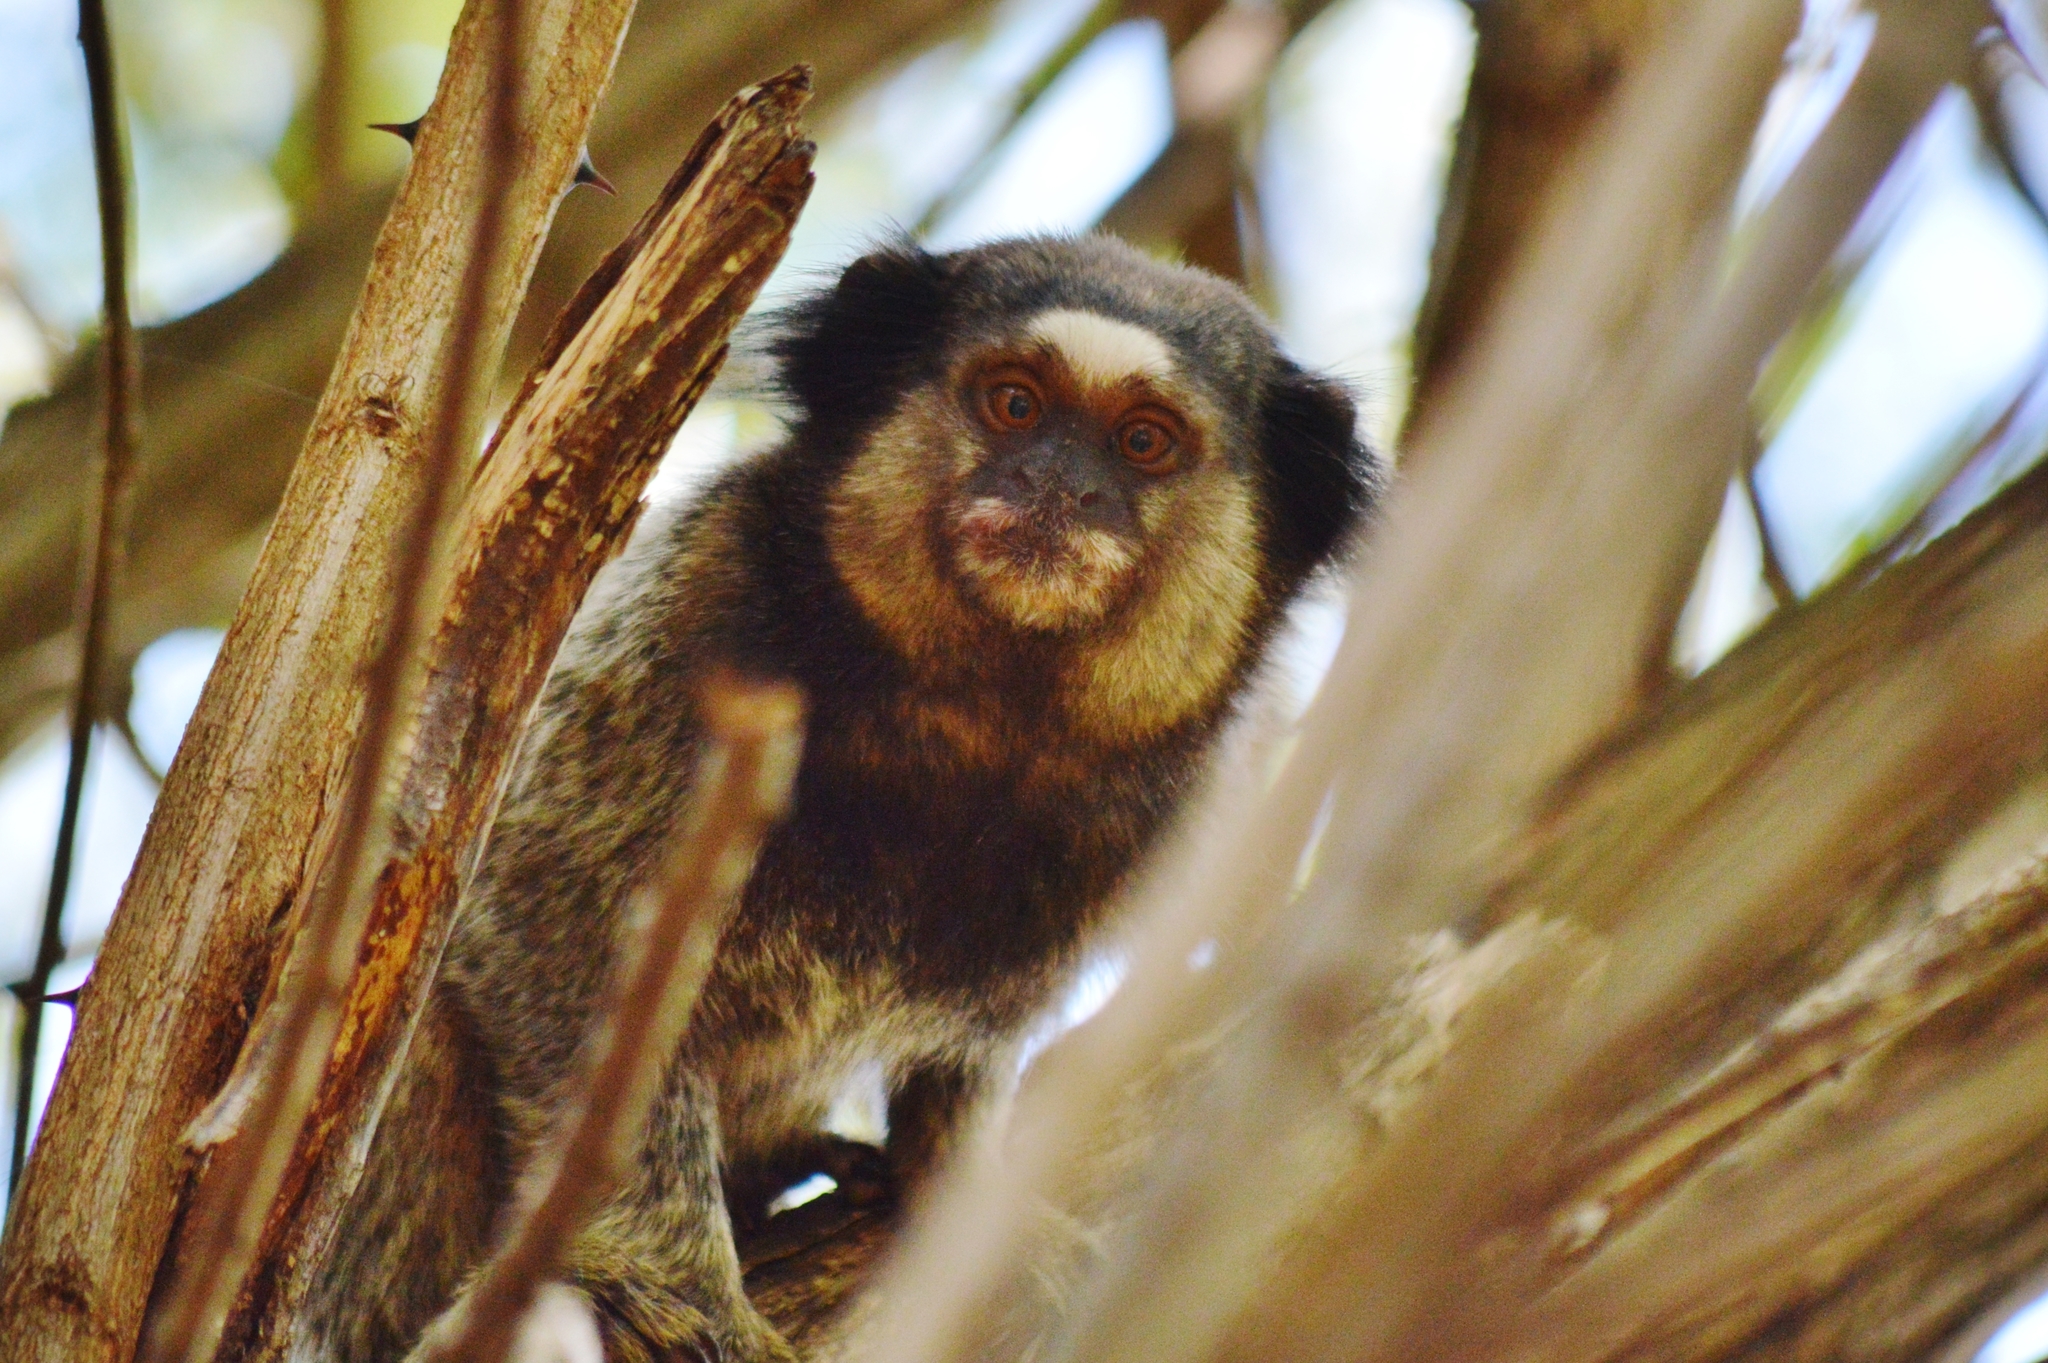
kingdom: Animalia
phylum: Chordata
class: Mammalia
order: Primates
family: Callitrichidae
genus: Callithrix
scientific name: Callithrix penicillata
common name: Black-tufted marmoset
